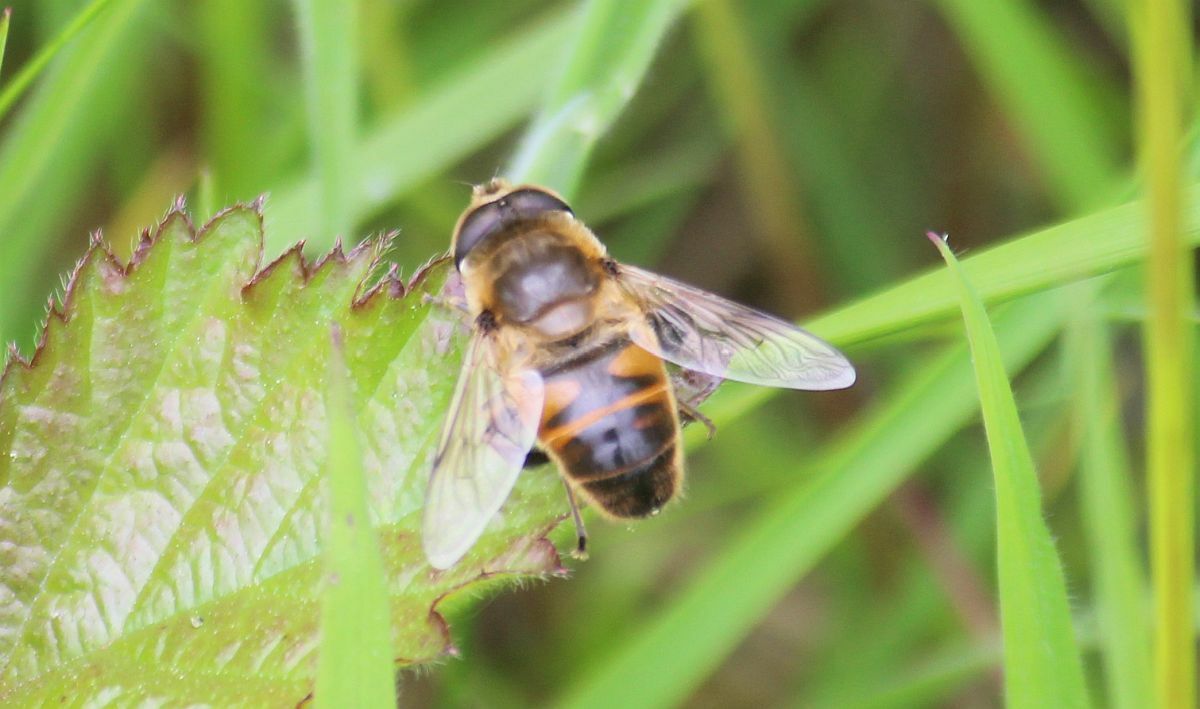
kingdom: Animalia
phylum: Arthropoda
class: Insecta
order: Diptera
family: Syrphidae
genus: Eristalis
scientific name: Eristalis tenax
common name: Drone fly
